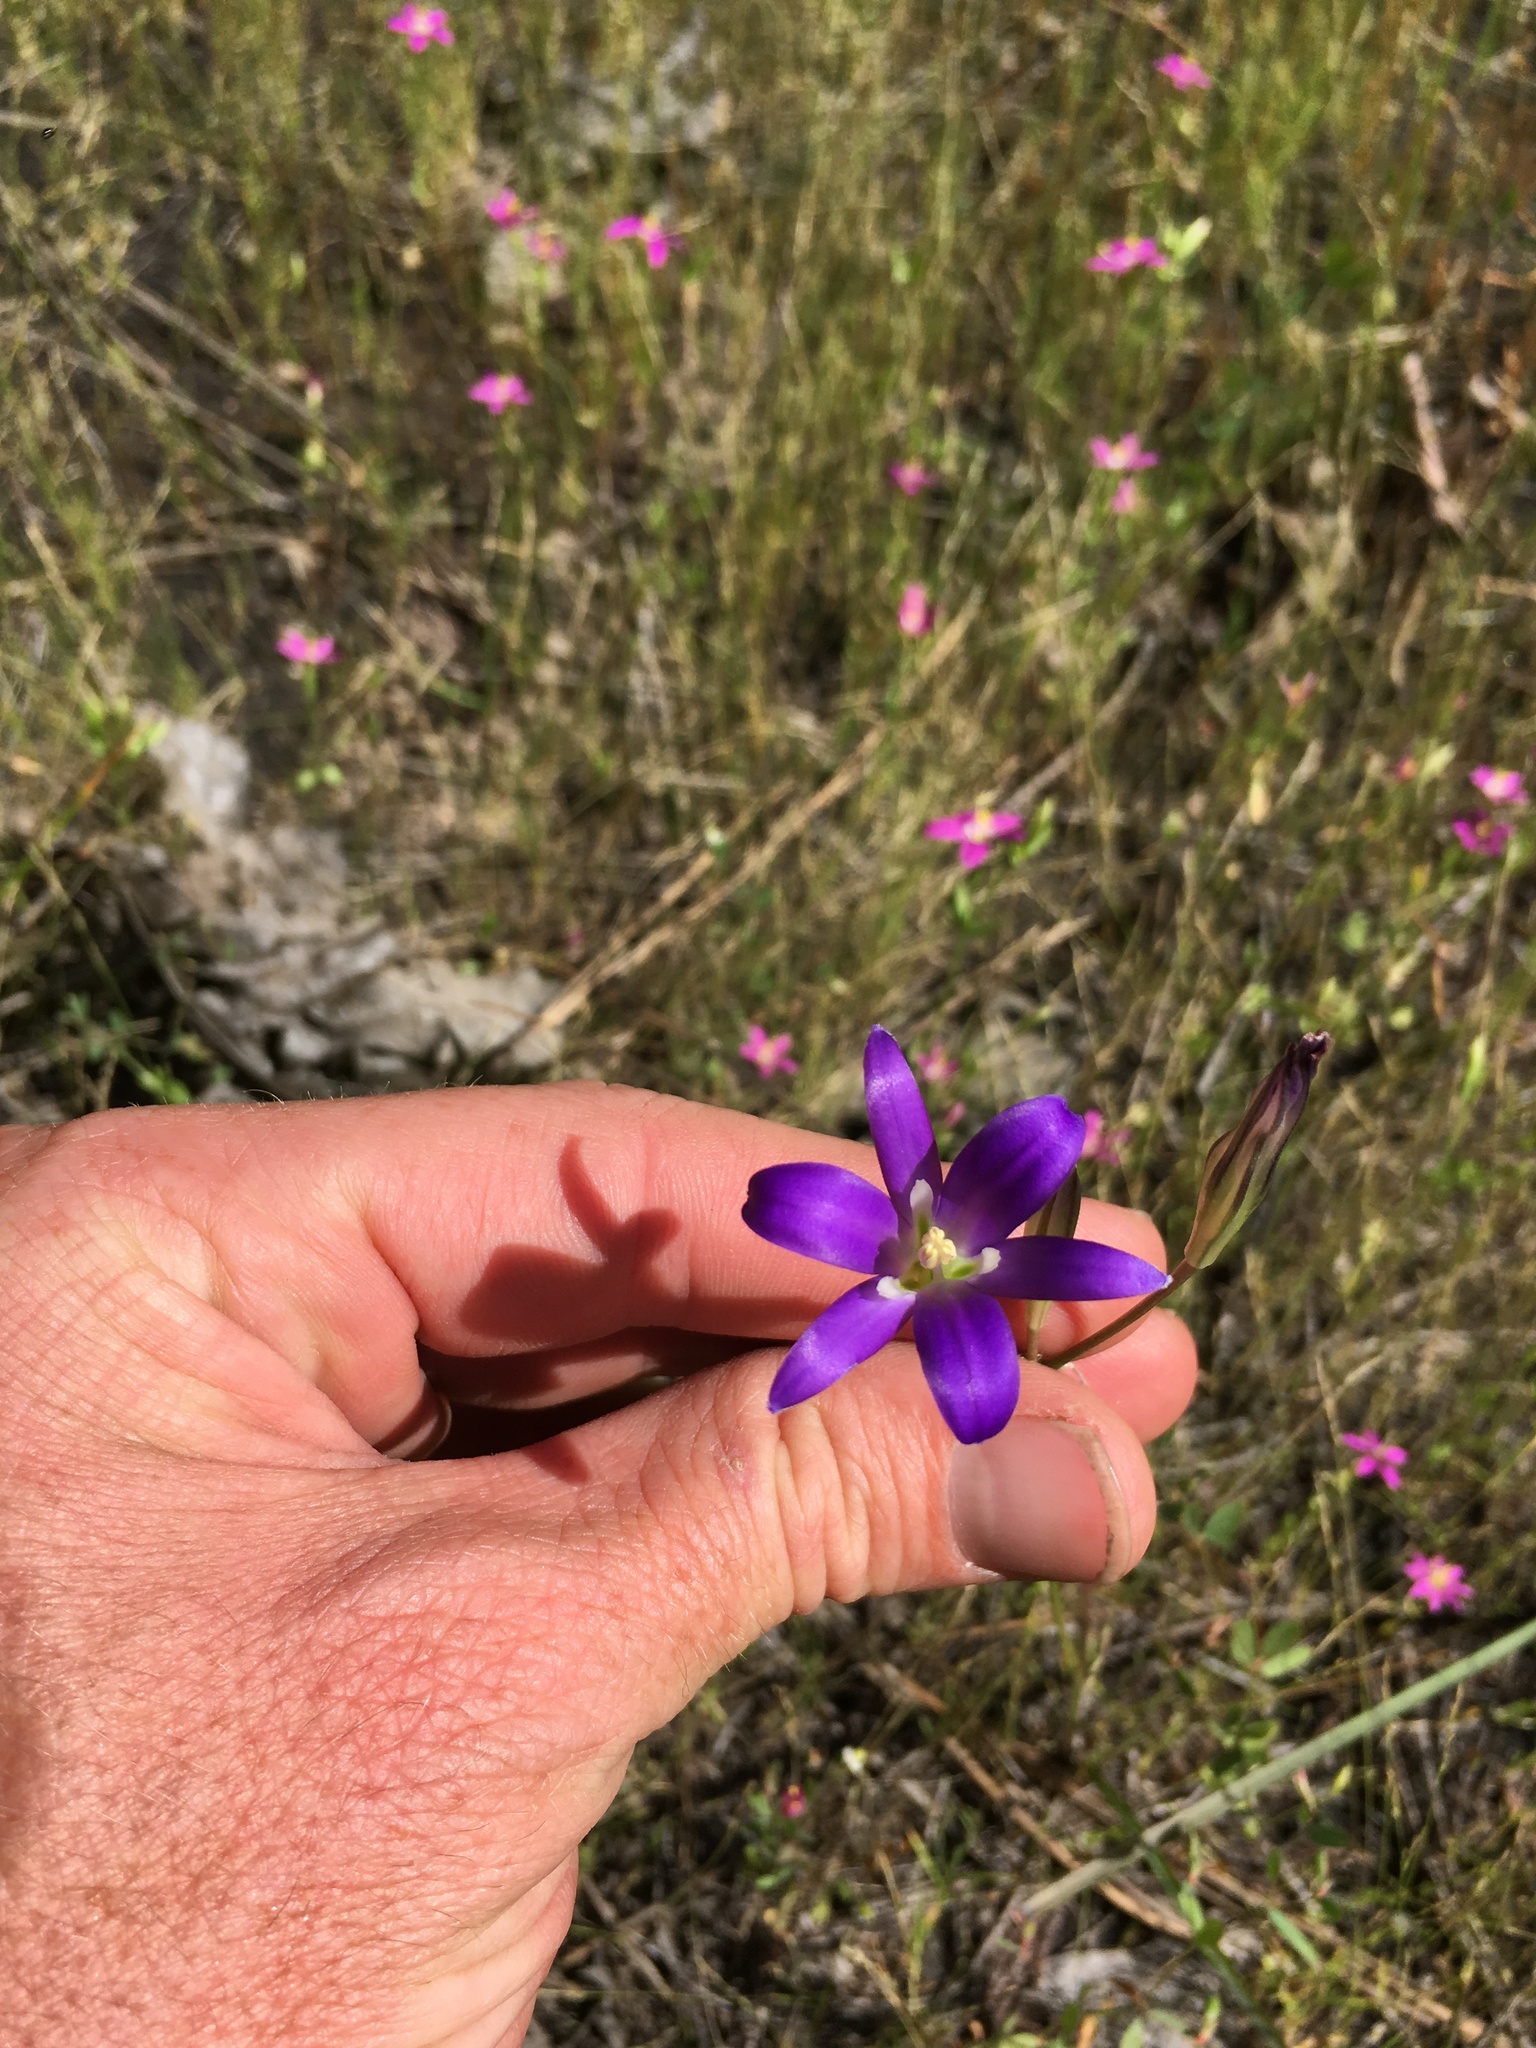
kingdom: Plantae
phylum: Tracheophyta
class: Liliopsida
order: Asparagales
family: Asparagaceae
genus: Brodiaea
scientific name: Brodiaea elegans
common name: Elegant cluster-lily
